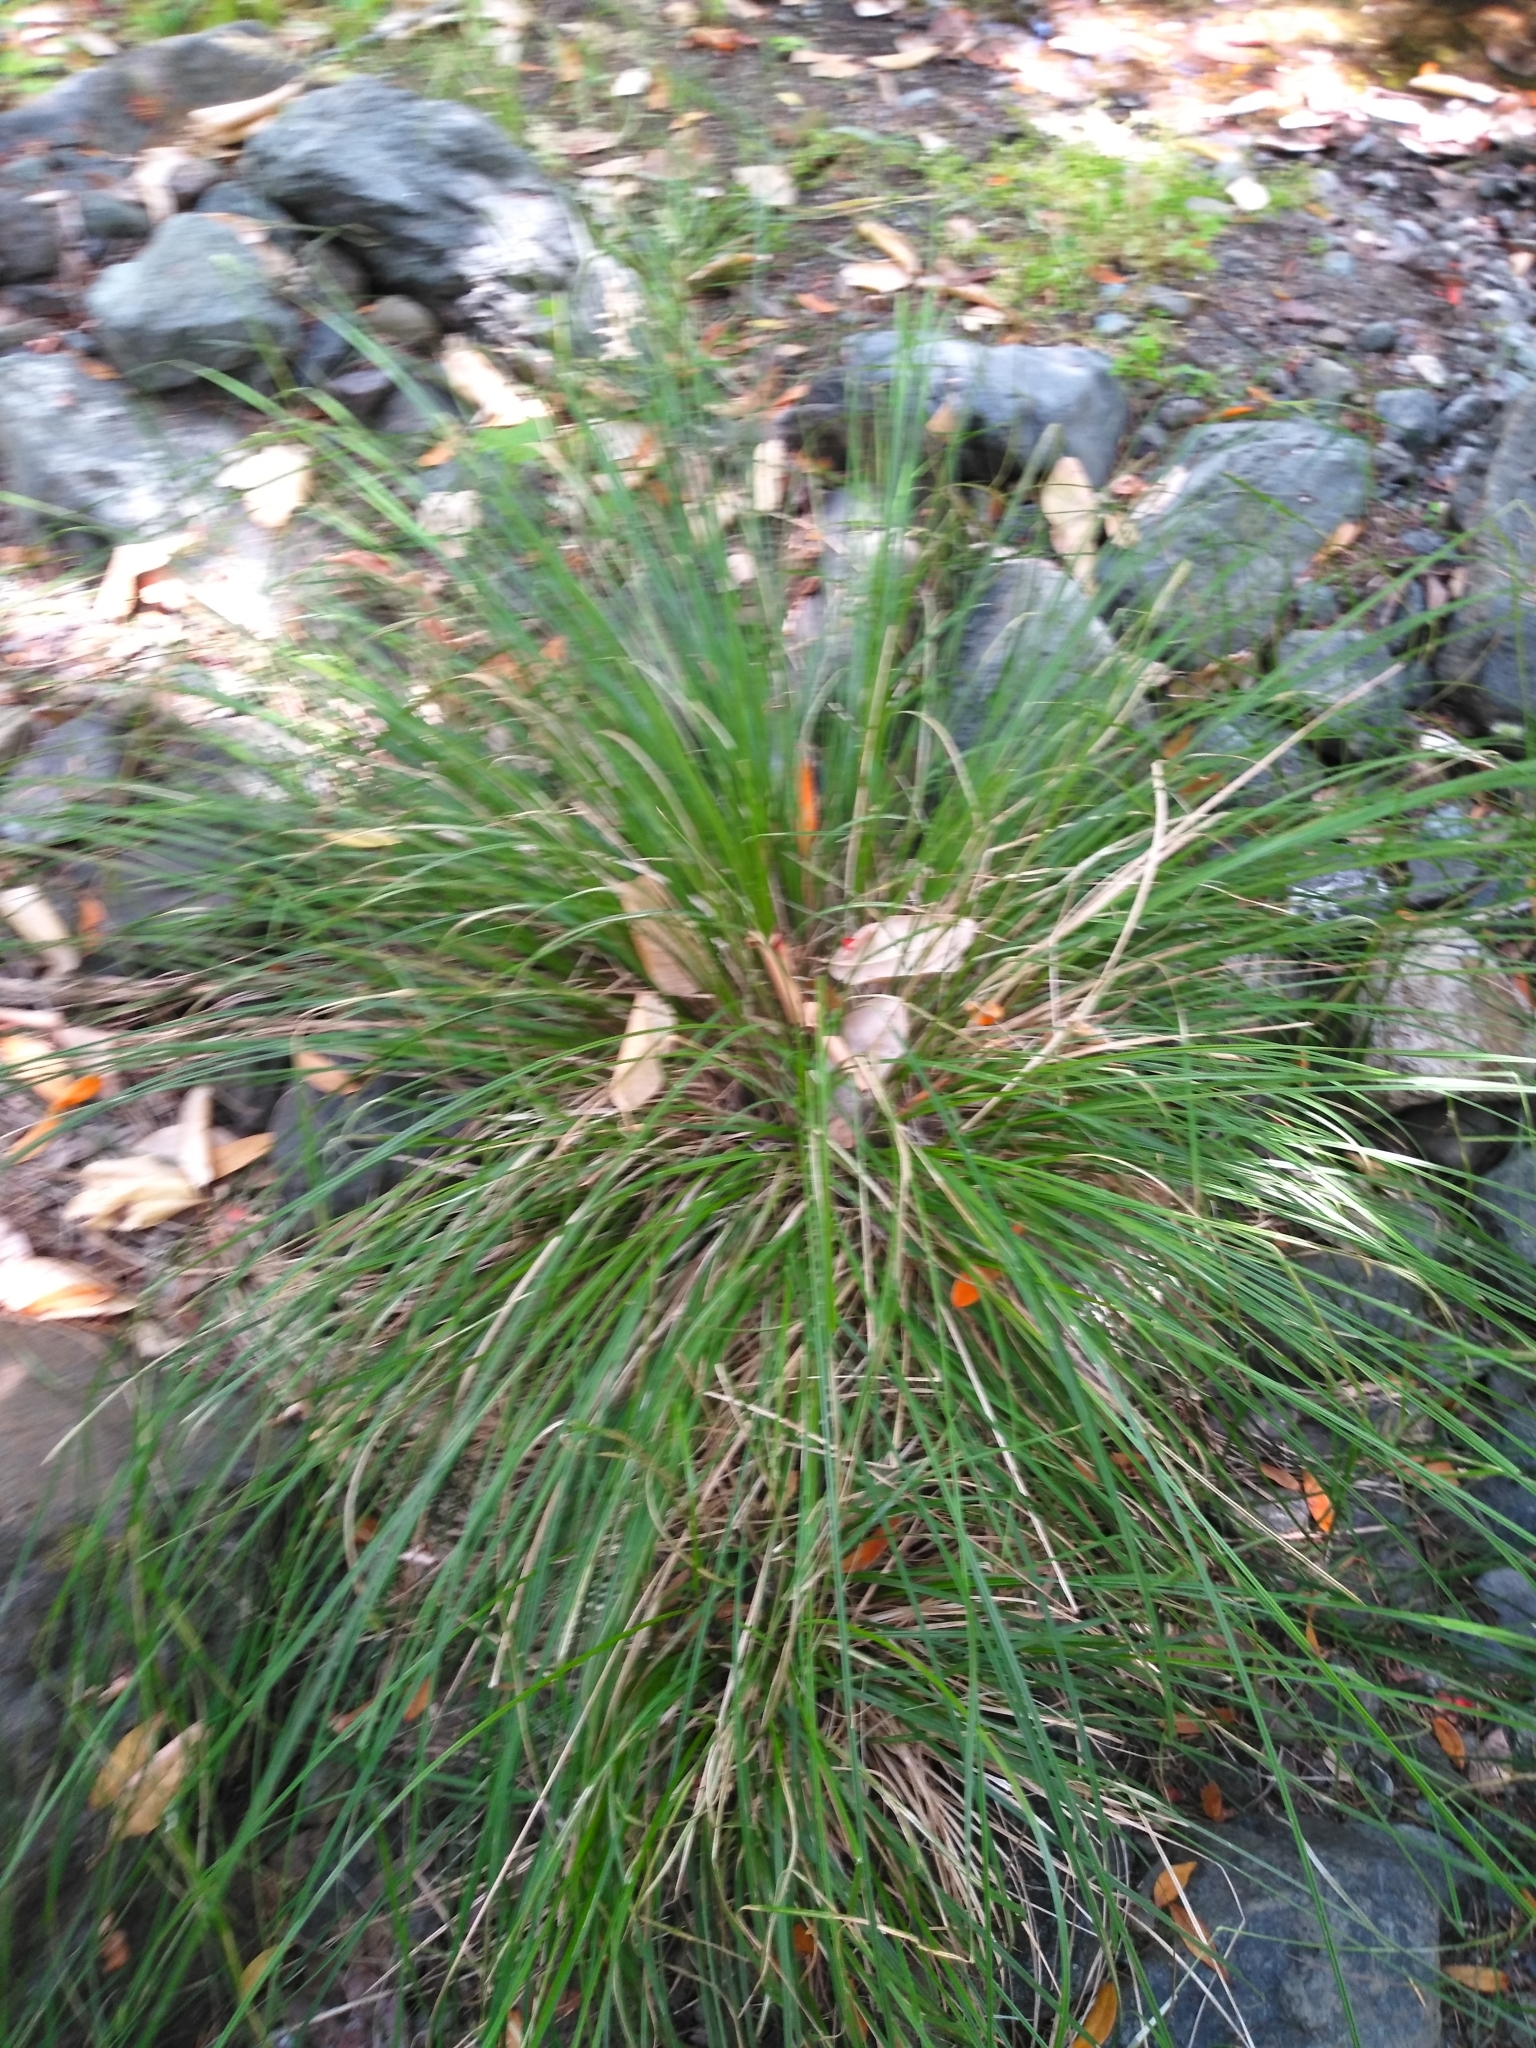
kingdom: Plantae
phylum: Tracheophyta
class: Liliopsida
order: Poales
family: Cyperaceae
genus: Carex
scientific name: Carex nudata
